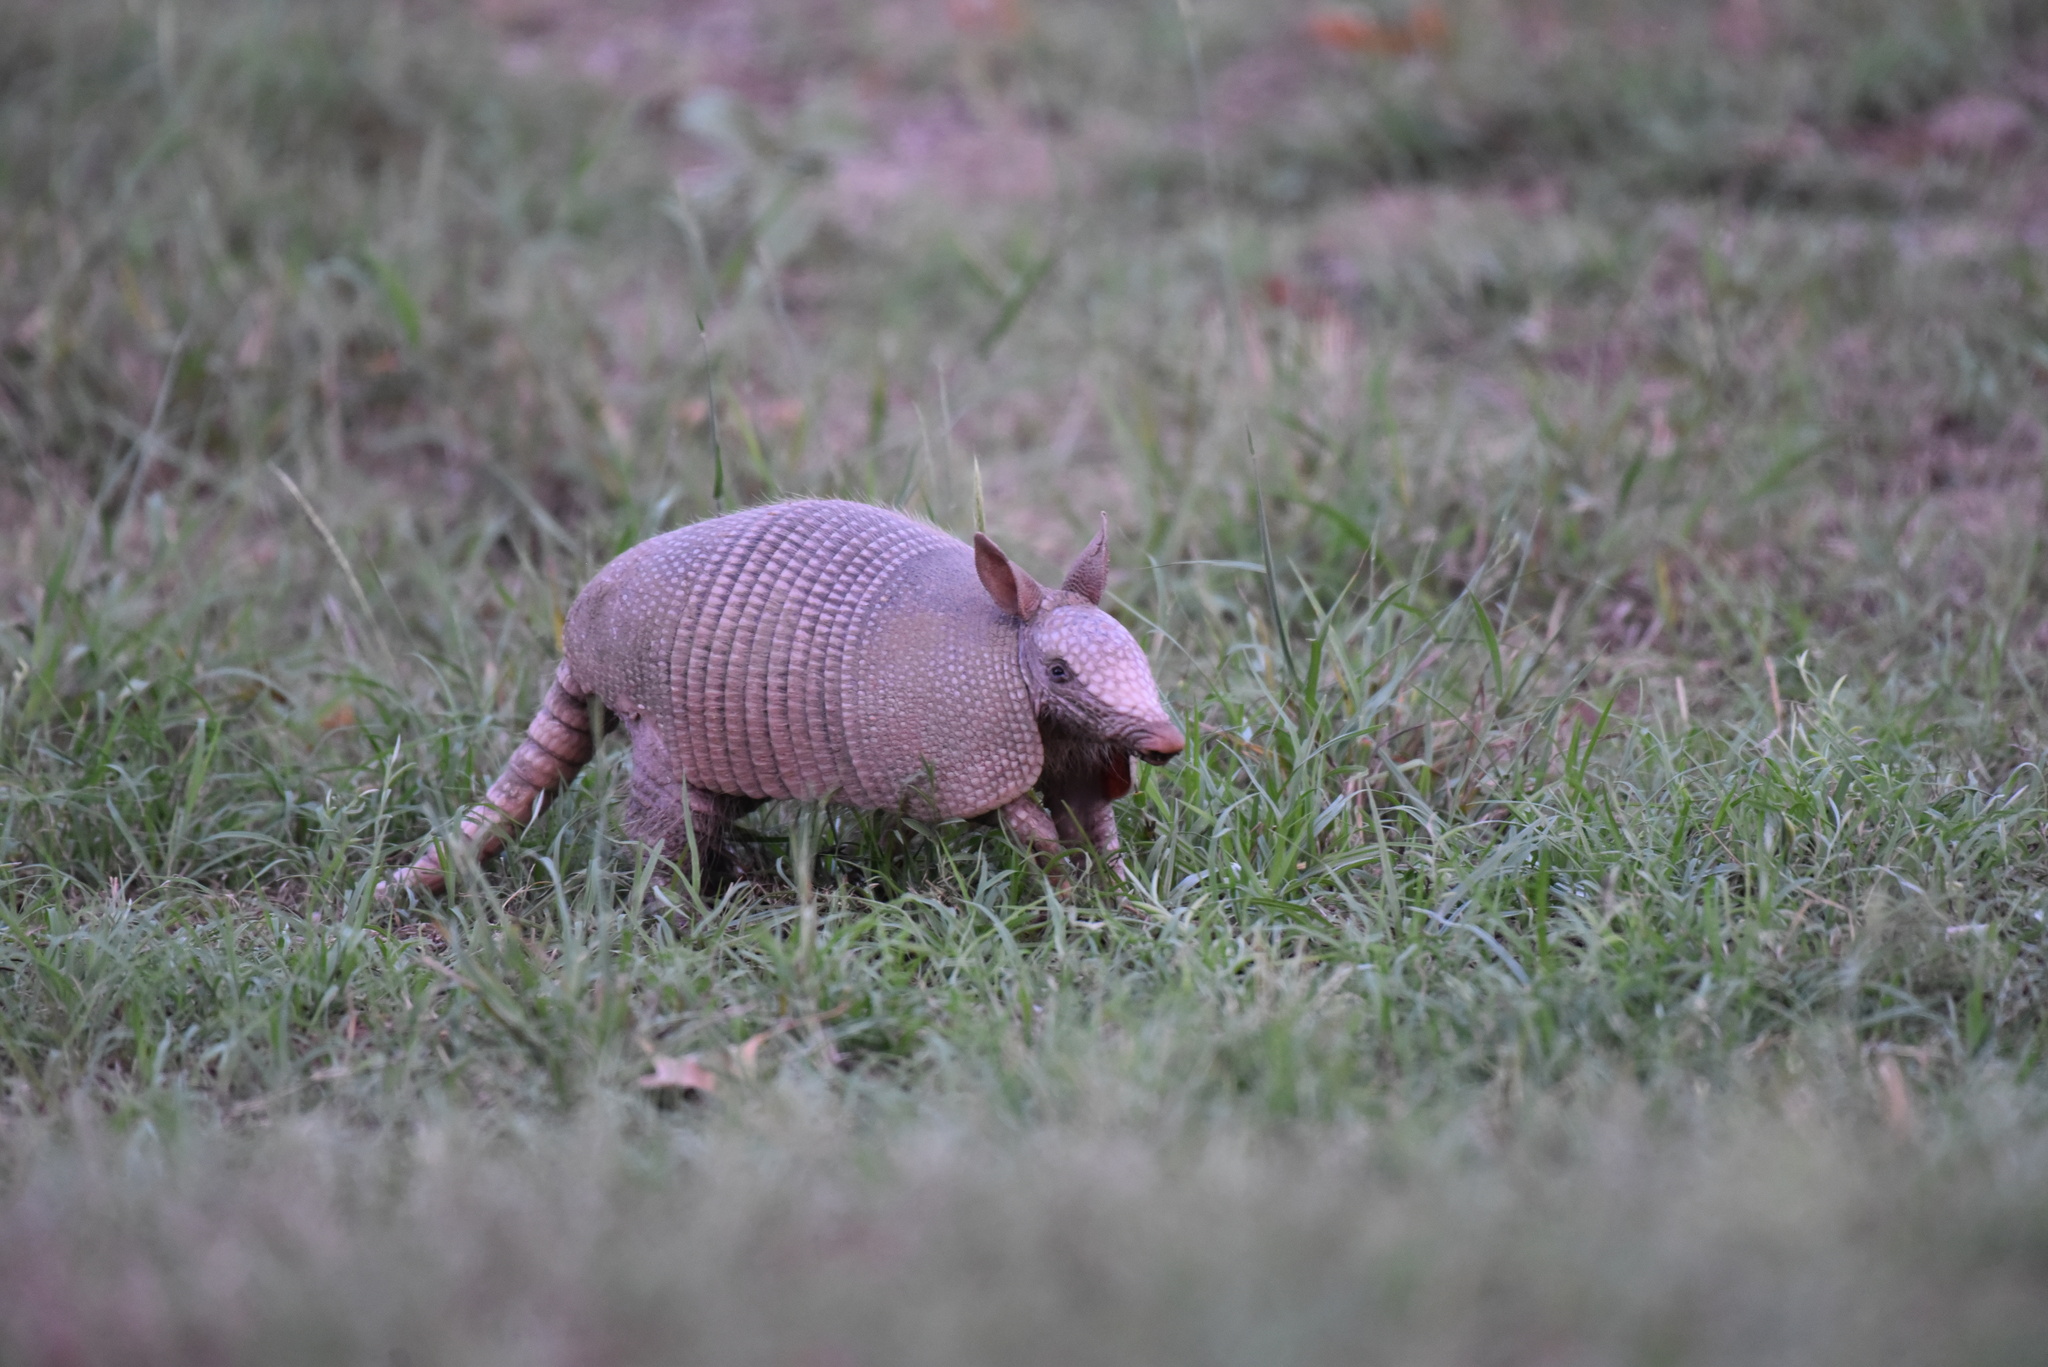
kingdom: Animalia
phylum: Chordata
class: Mammalia
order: Cingulata
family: Dasypodidae
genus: Dasypus
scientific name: Dasypus novemcinctus
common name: Nine-banded armadillo
